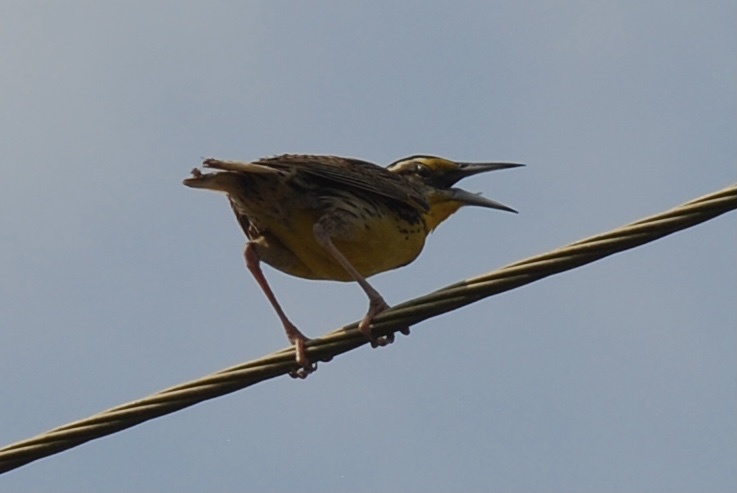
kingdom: Animalia
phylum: Chordata
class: Aves
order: Passeriformes
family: Icteridae
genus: Sturnella
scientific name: Sturnella magna
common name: Eastern meadowlark
